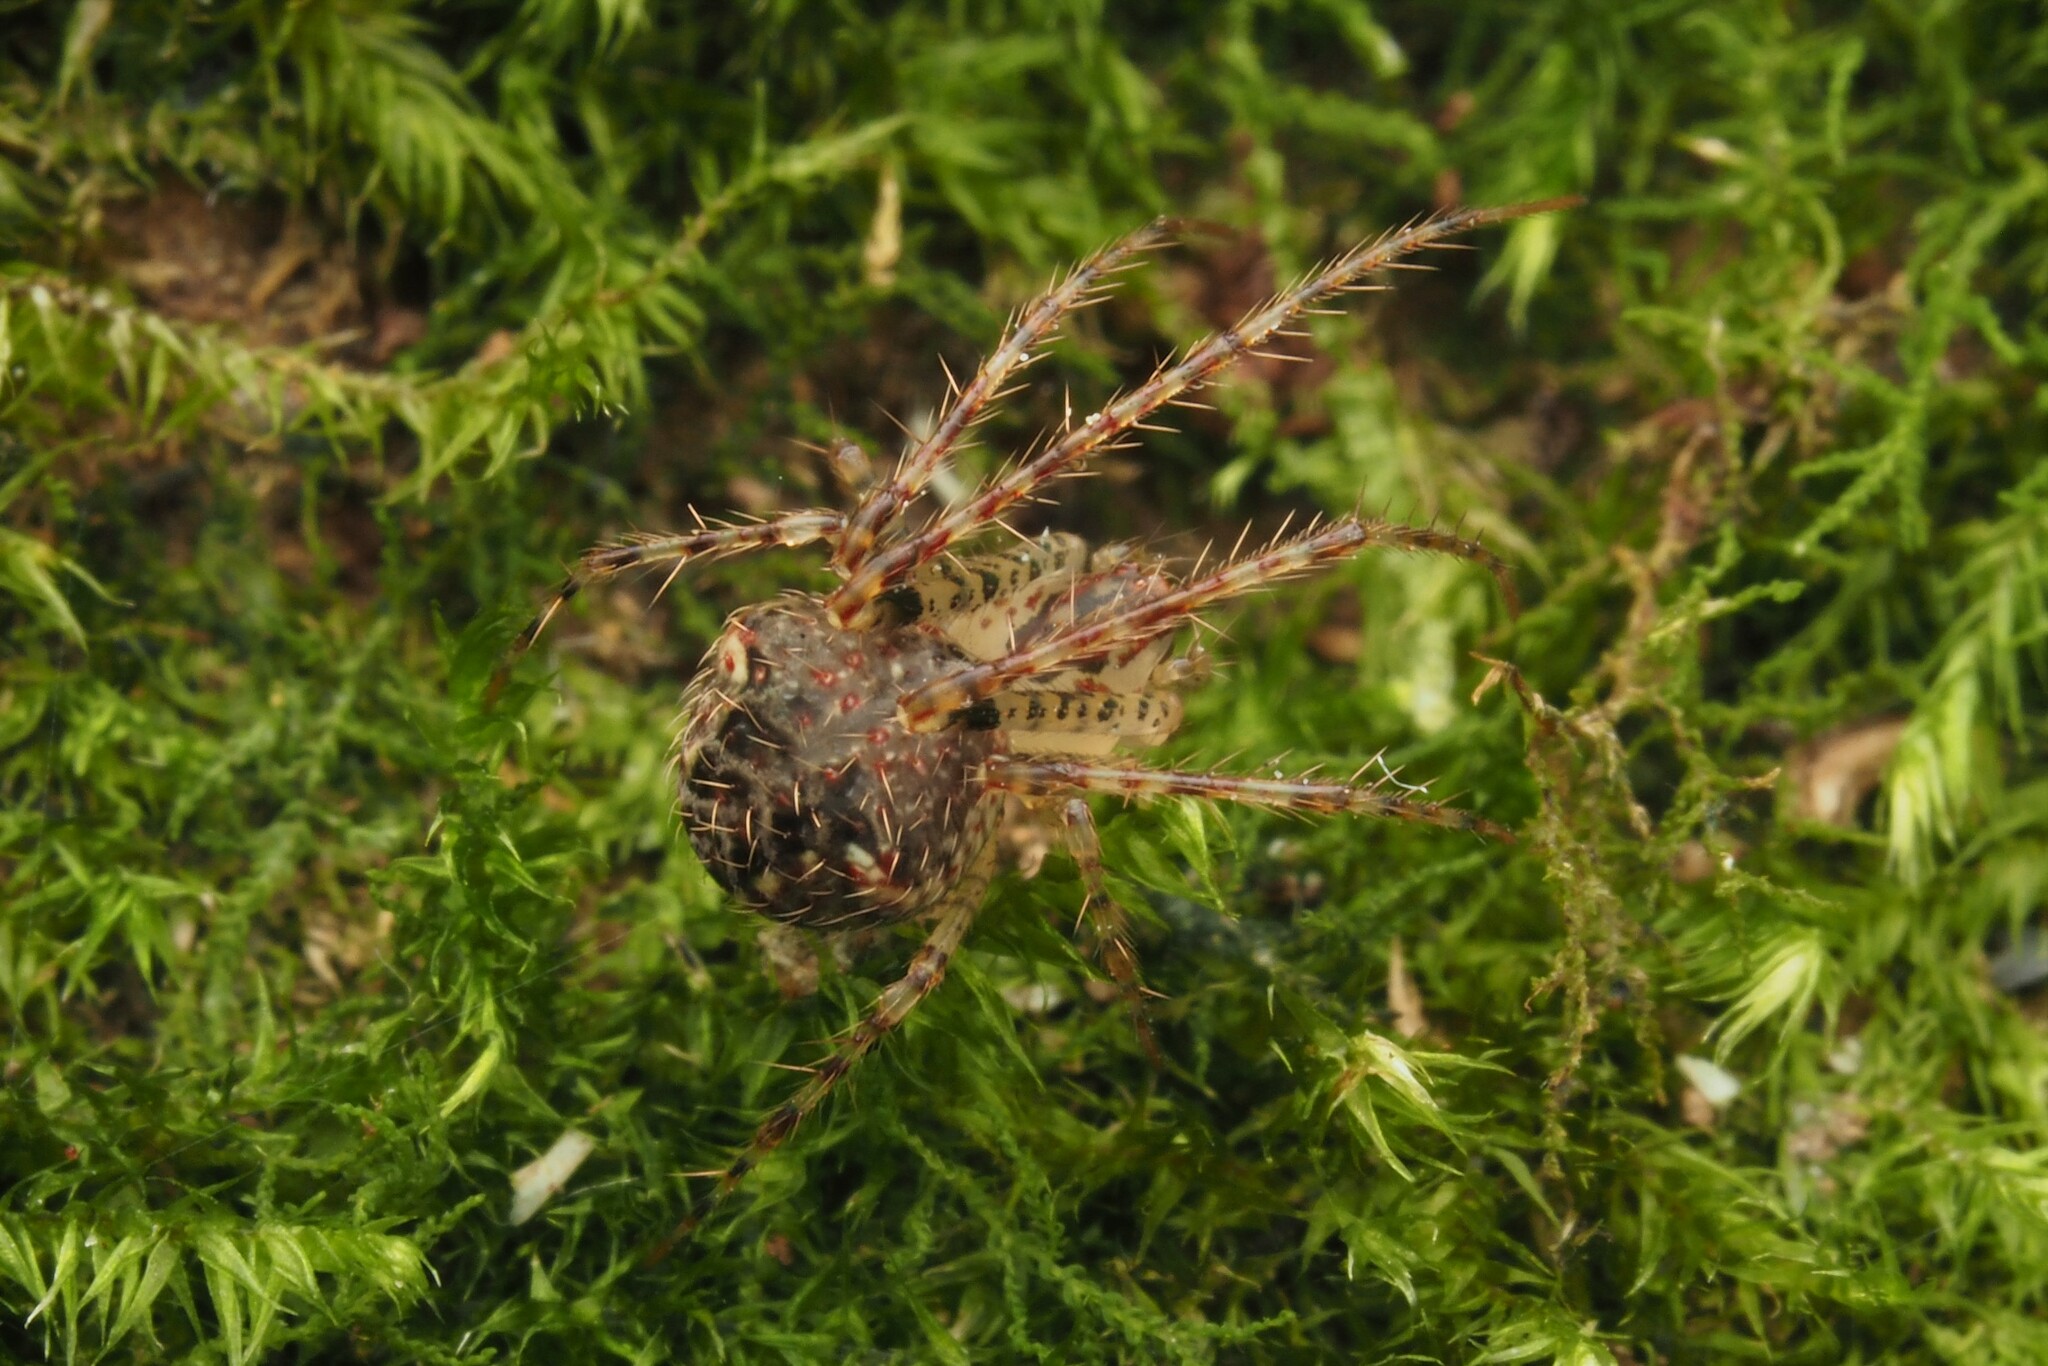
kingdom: Animalia
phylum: Arthropoda
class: Arachnida
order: Araneae
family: Mimetidae
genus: Australomimetus
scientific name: Australomimetus triangulosus
